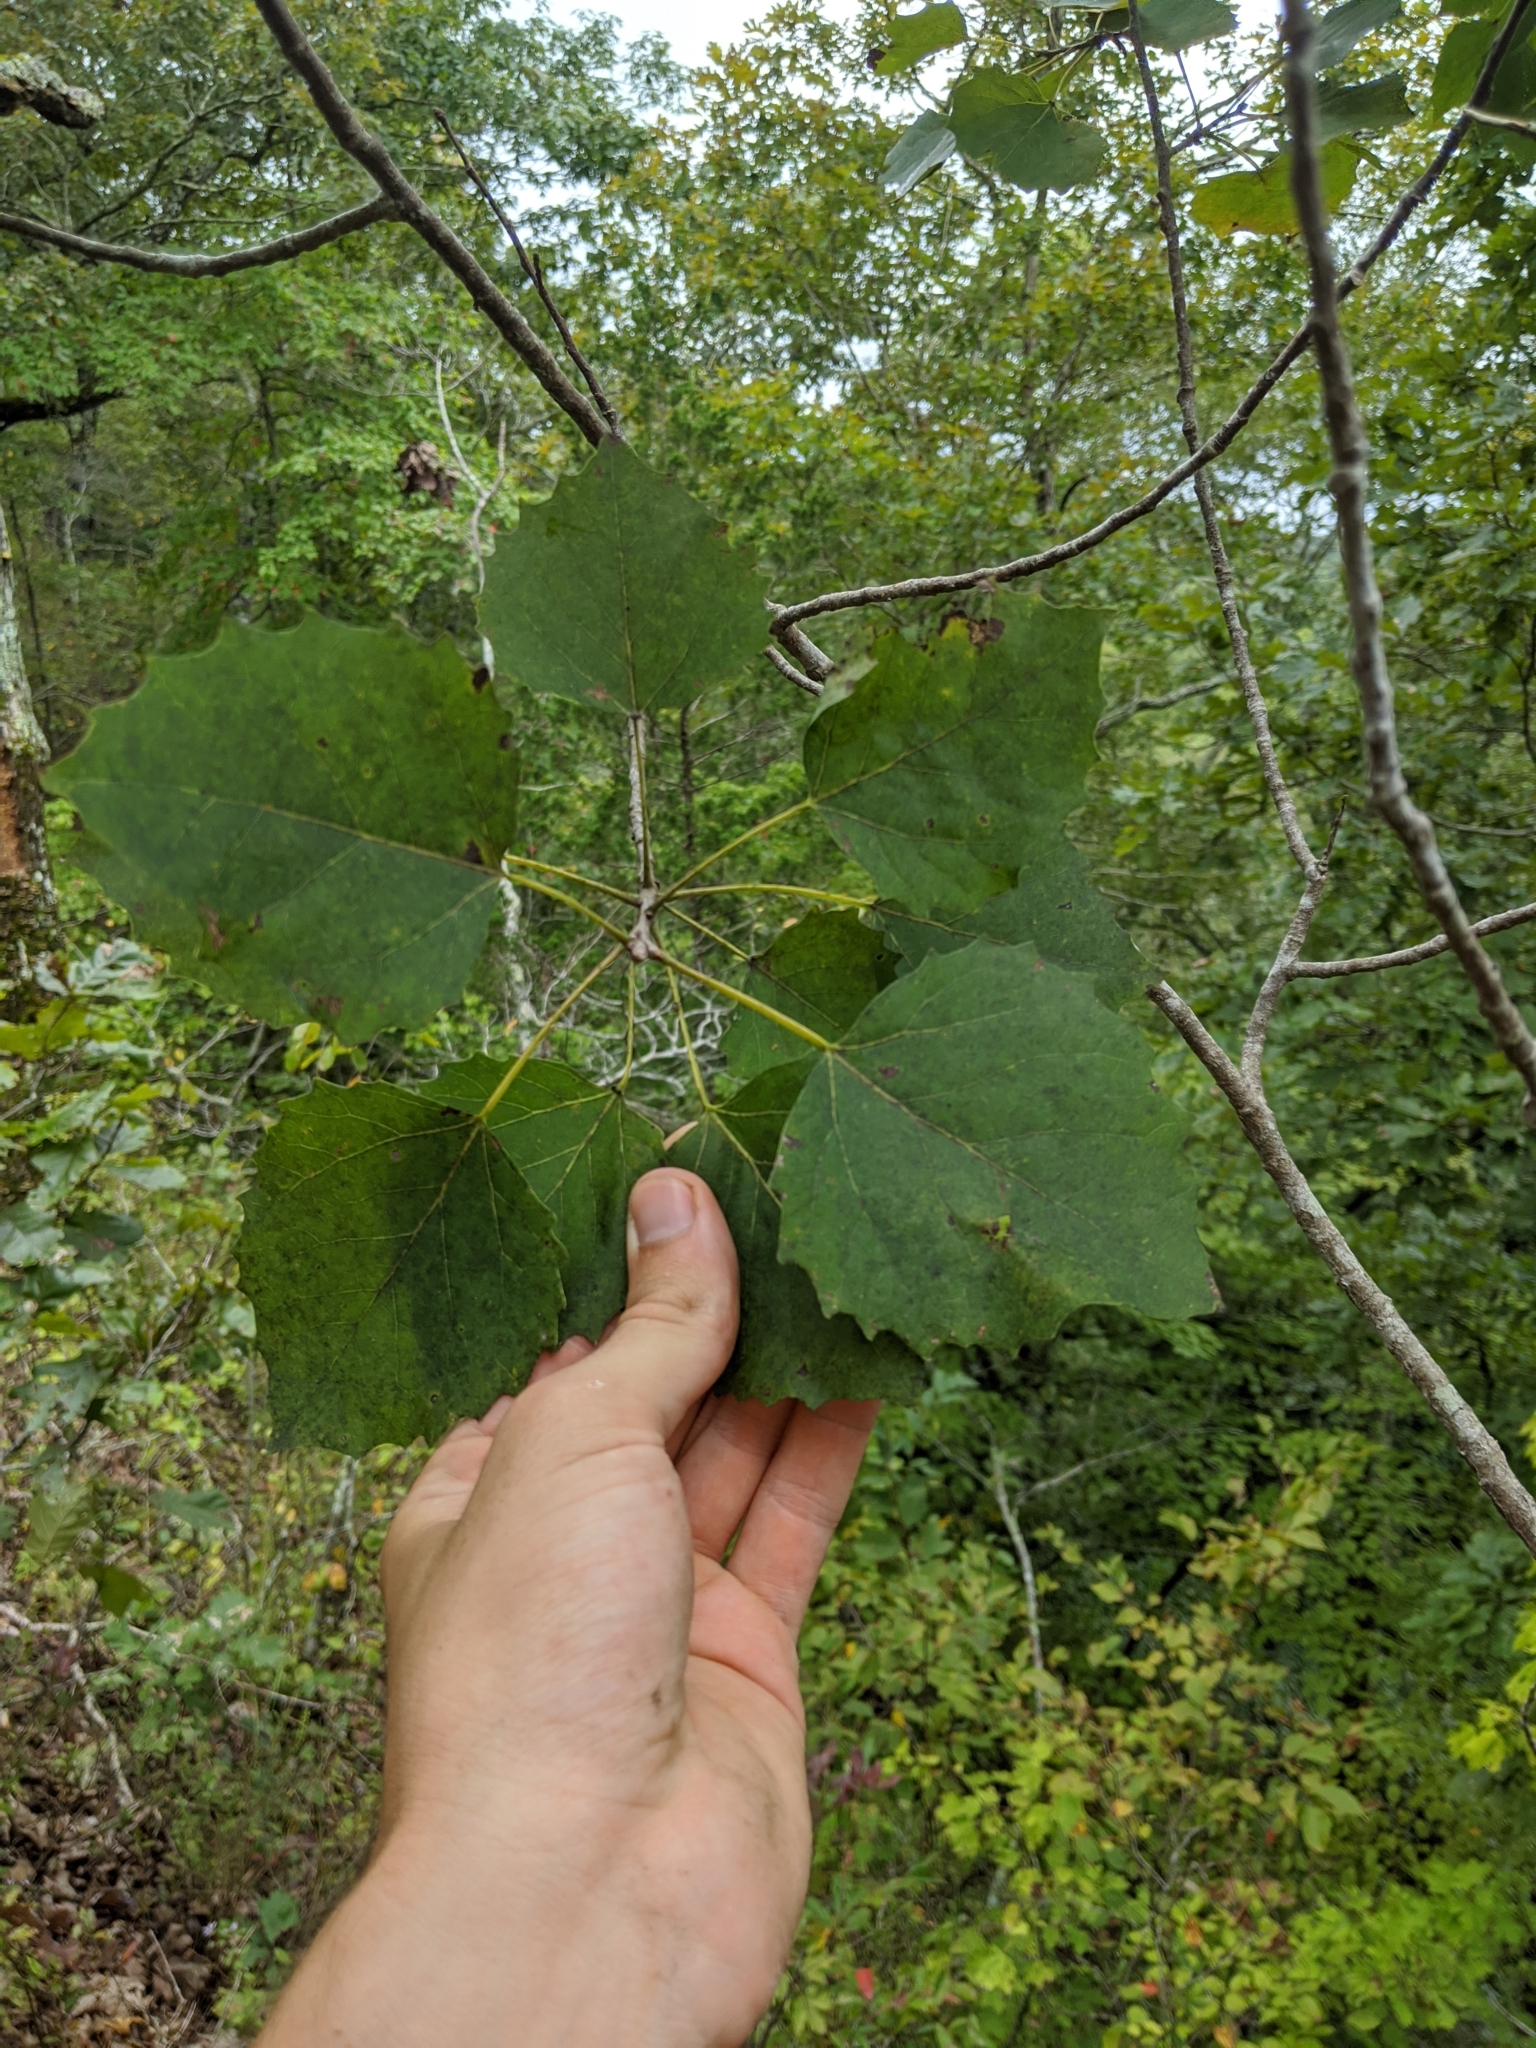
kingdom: Plantae
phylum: Tracheophyta
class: Magnoliopsida
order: Malpighiales
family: Salicaceae
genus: Populus
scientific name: Populus grandidentata
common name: Bigtooth aspen
